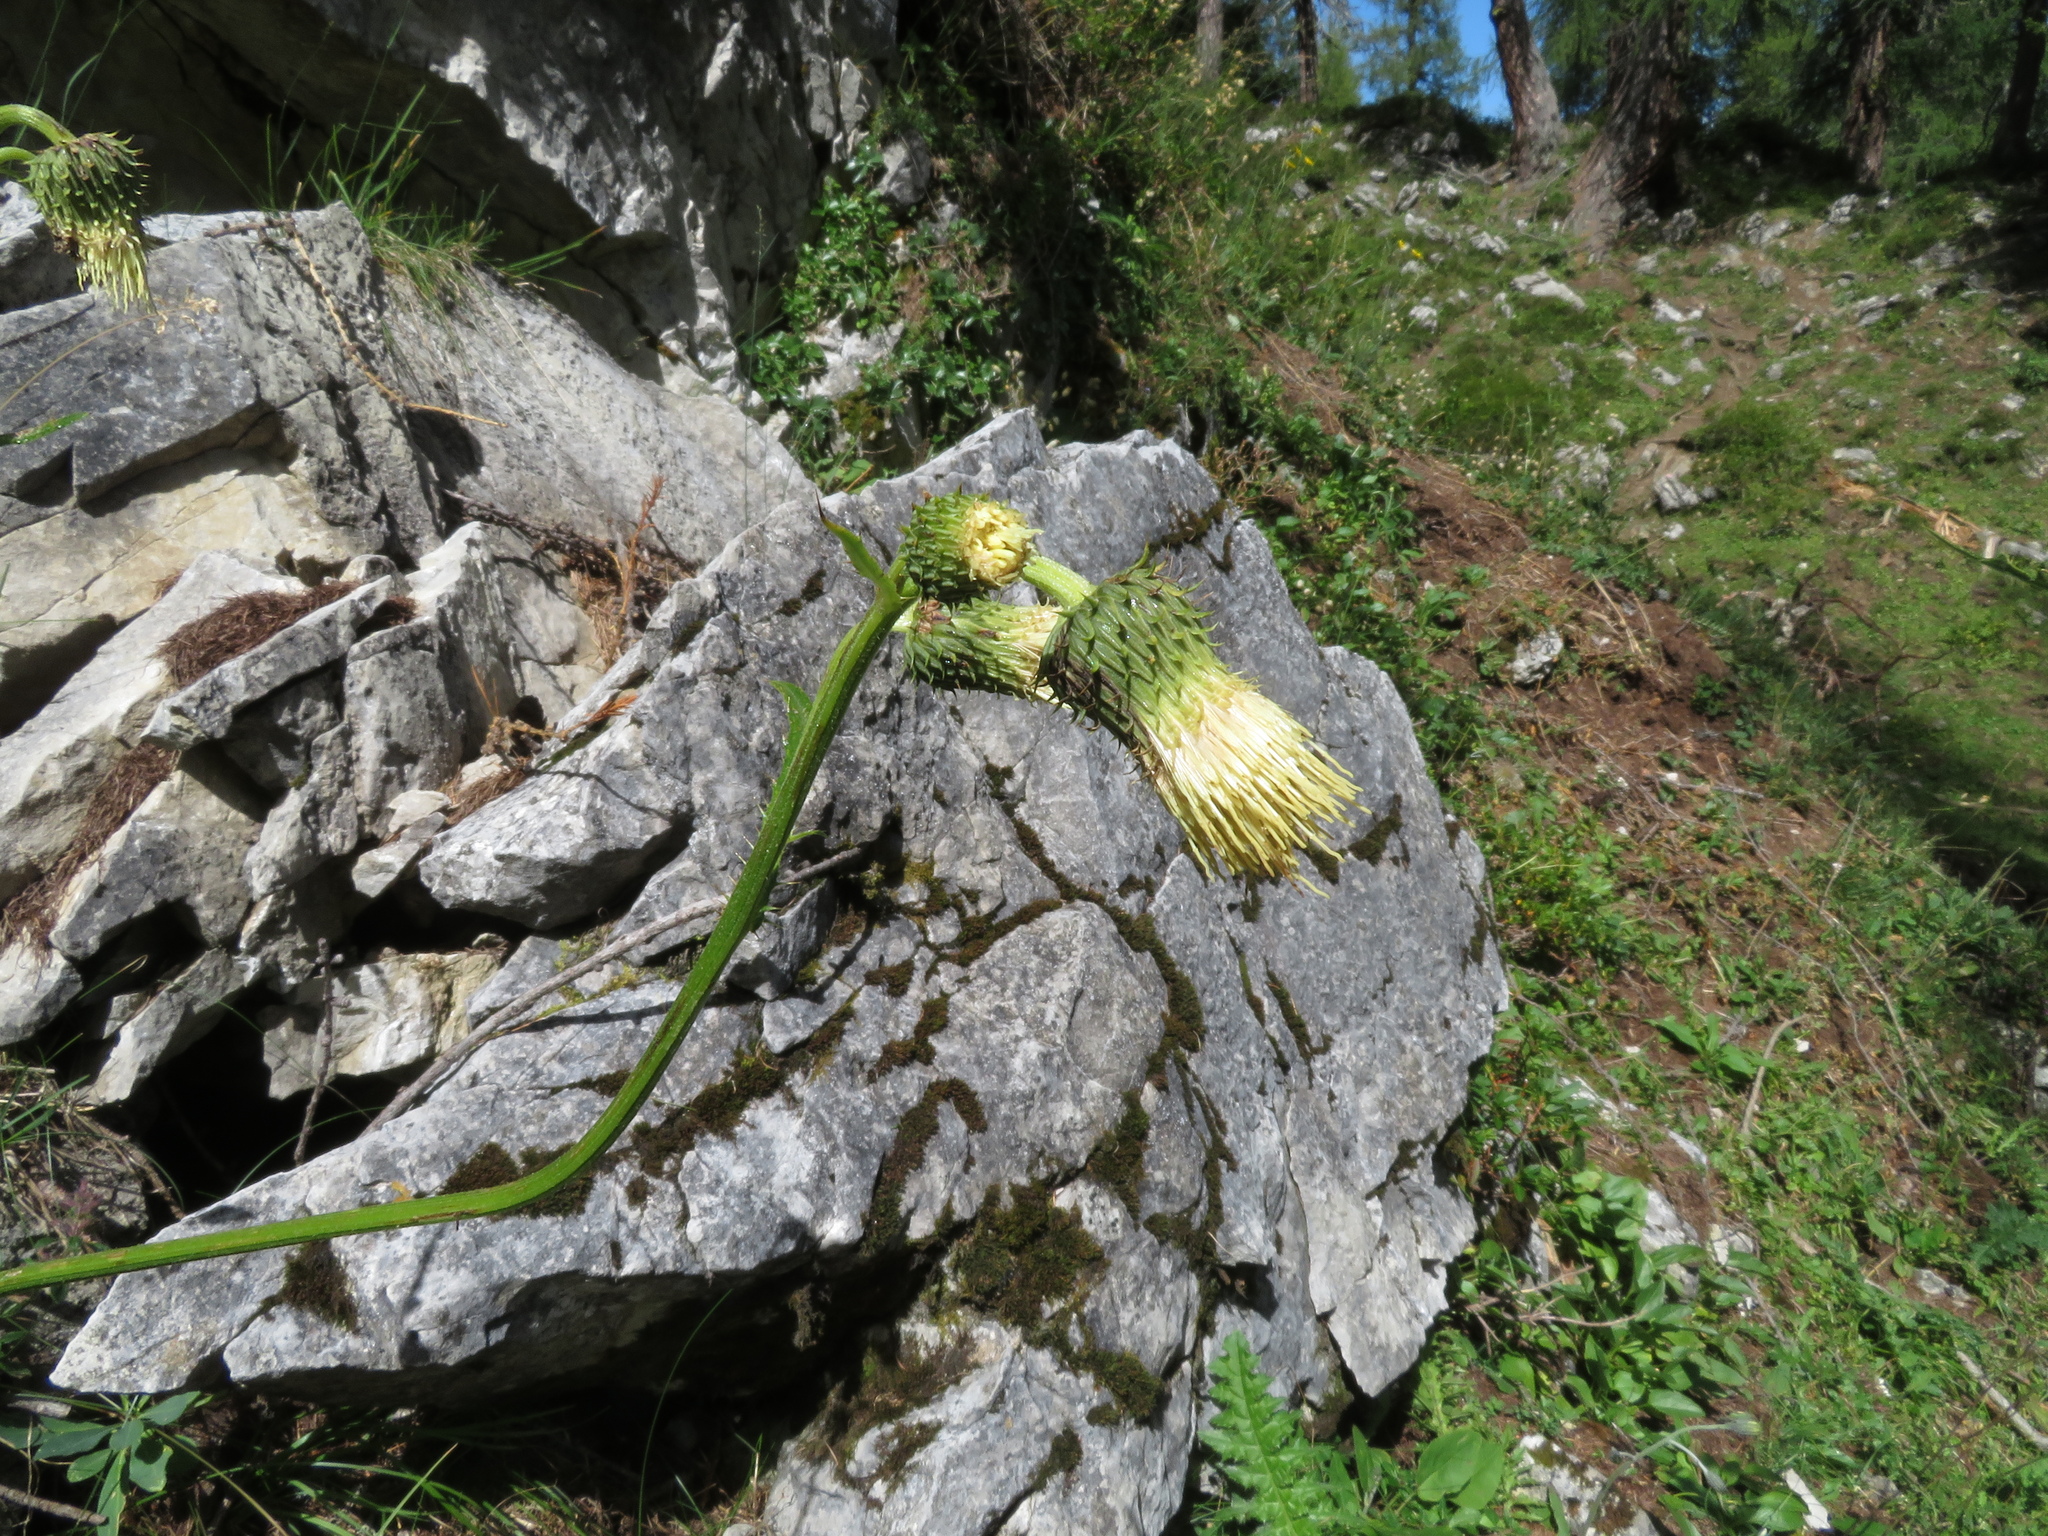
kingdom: Plantae
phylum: Tracheophyta
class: Magnoliopsida
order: Asterales
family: Asteraceae
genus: Cirsium
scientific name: Cirsium erisithales
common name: Yellow thistle
